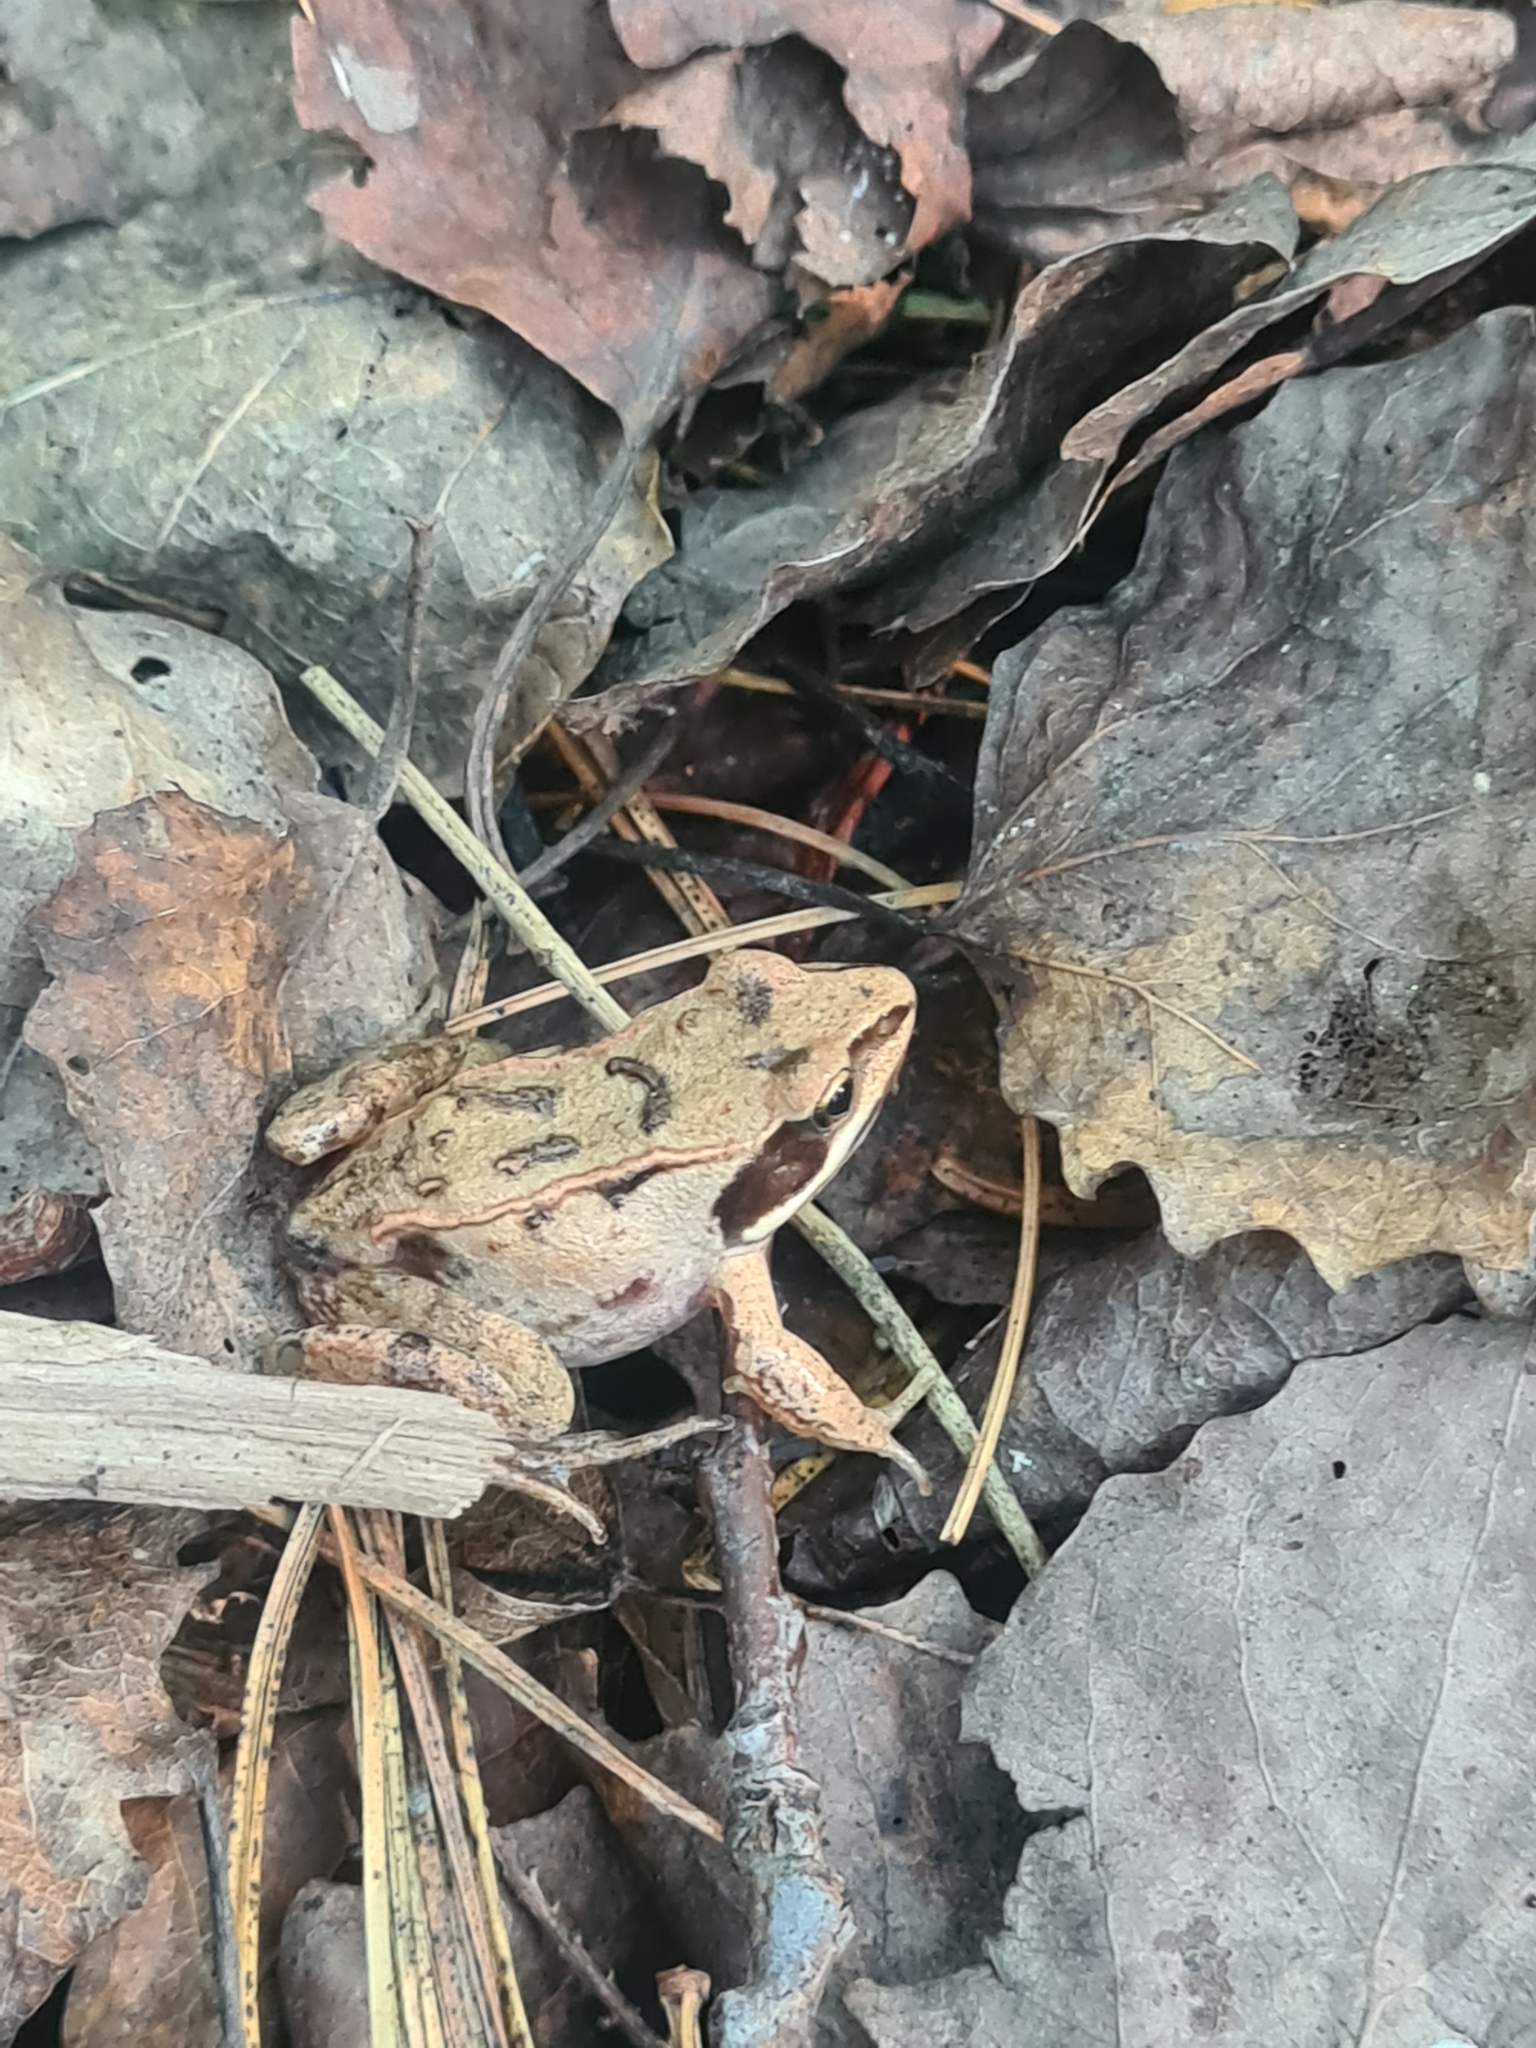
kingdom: Animalia
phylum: Chordata
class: Amphibia
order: Anura
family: Ranidae
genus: Rana
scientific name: Rana arvalis
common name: Moor frog
